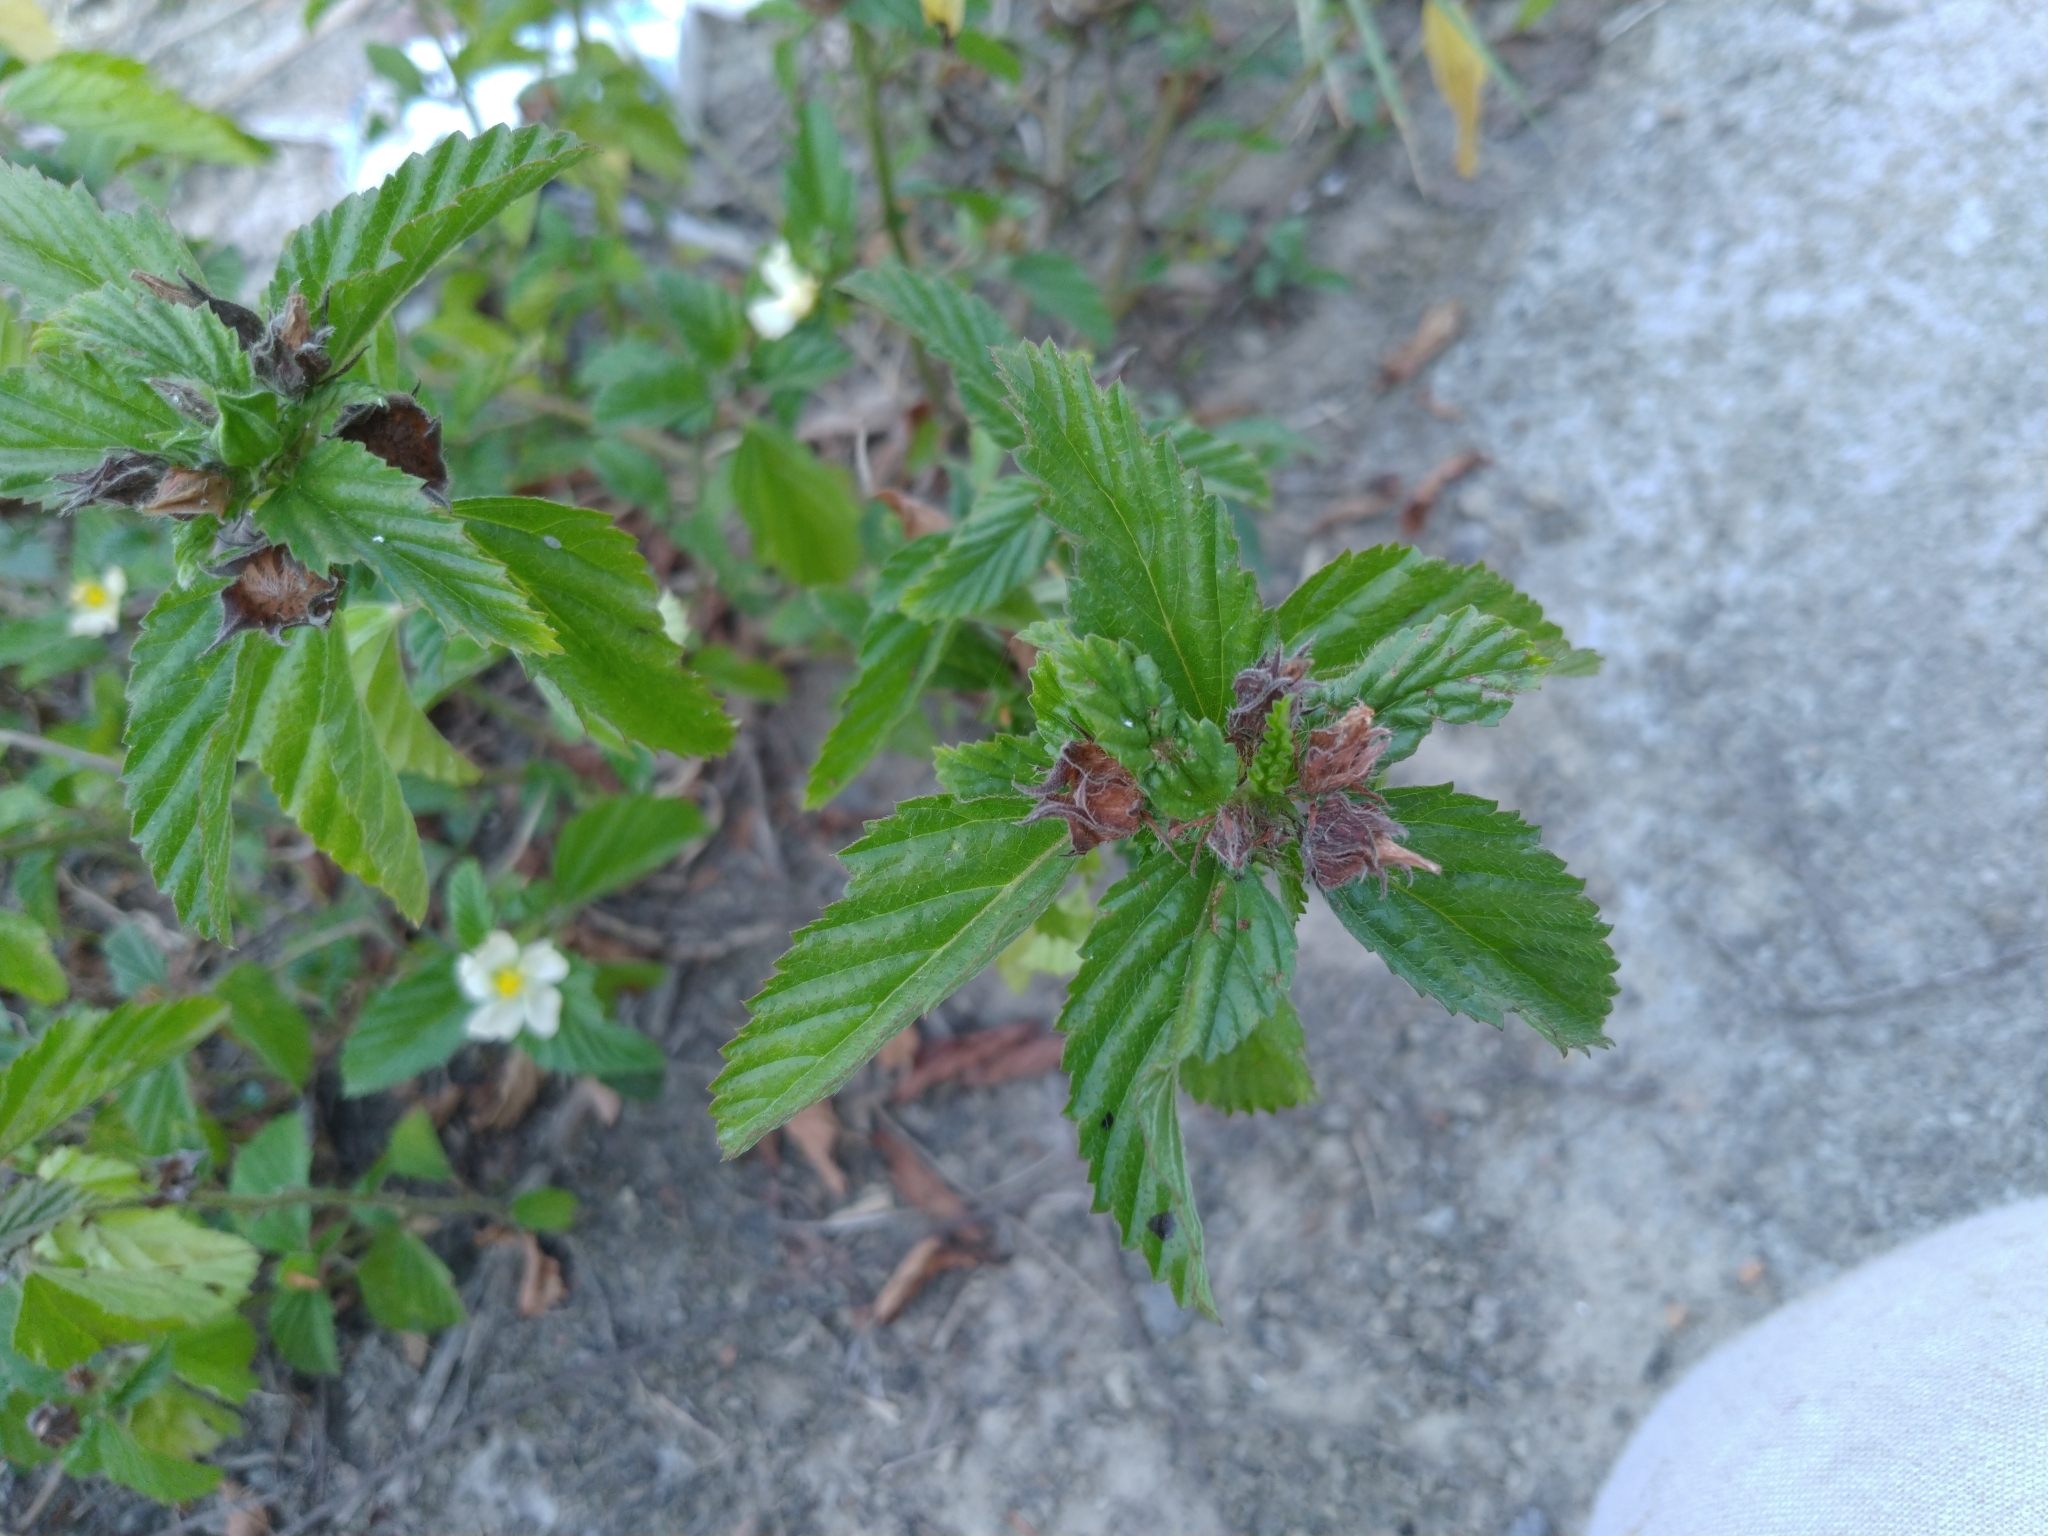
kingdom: Plantae
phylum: Tracheophyta
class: Magnoliopsida
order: Malvales
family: Malvaceae
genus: Malvastrum
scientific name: Malvastrum coromandelianum
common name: Threelobe false mallow
